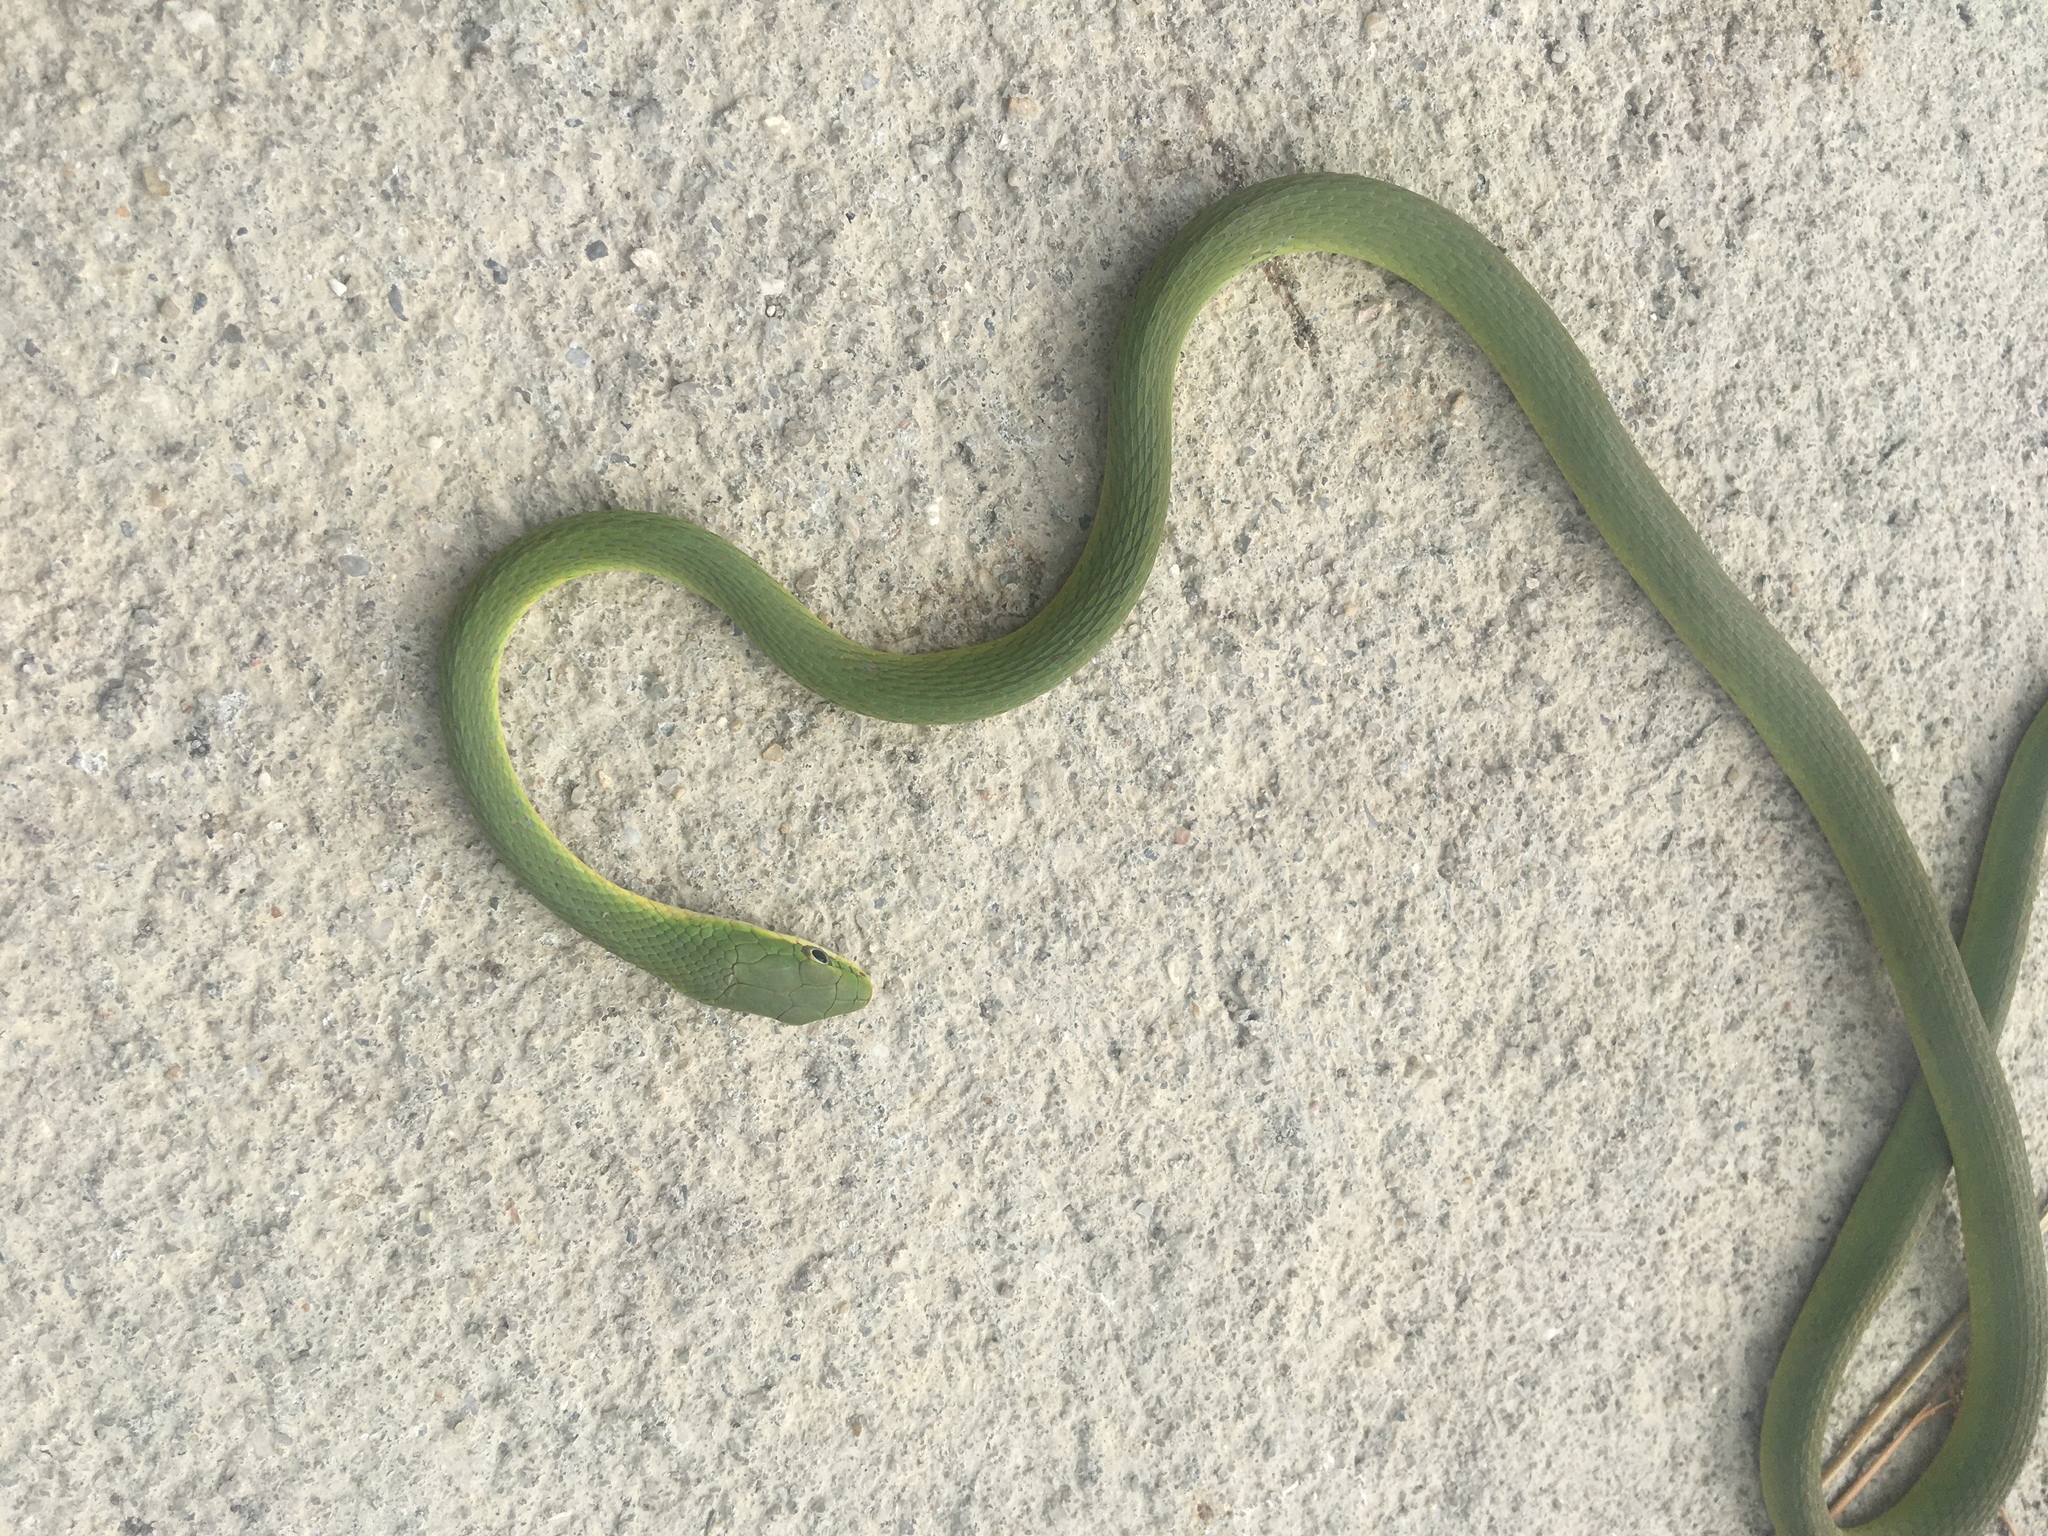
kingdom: Animalia
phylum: Chordata
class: Squamata
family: Colubridae
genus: Opheodrys
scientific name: Opheodrys aestivus
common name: Rough greensnake
